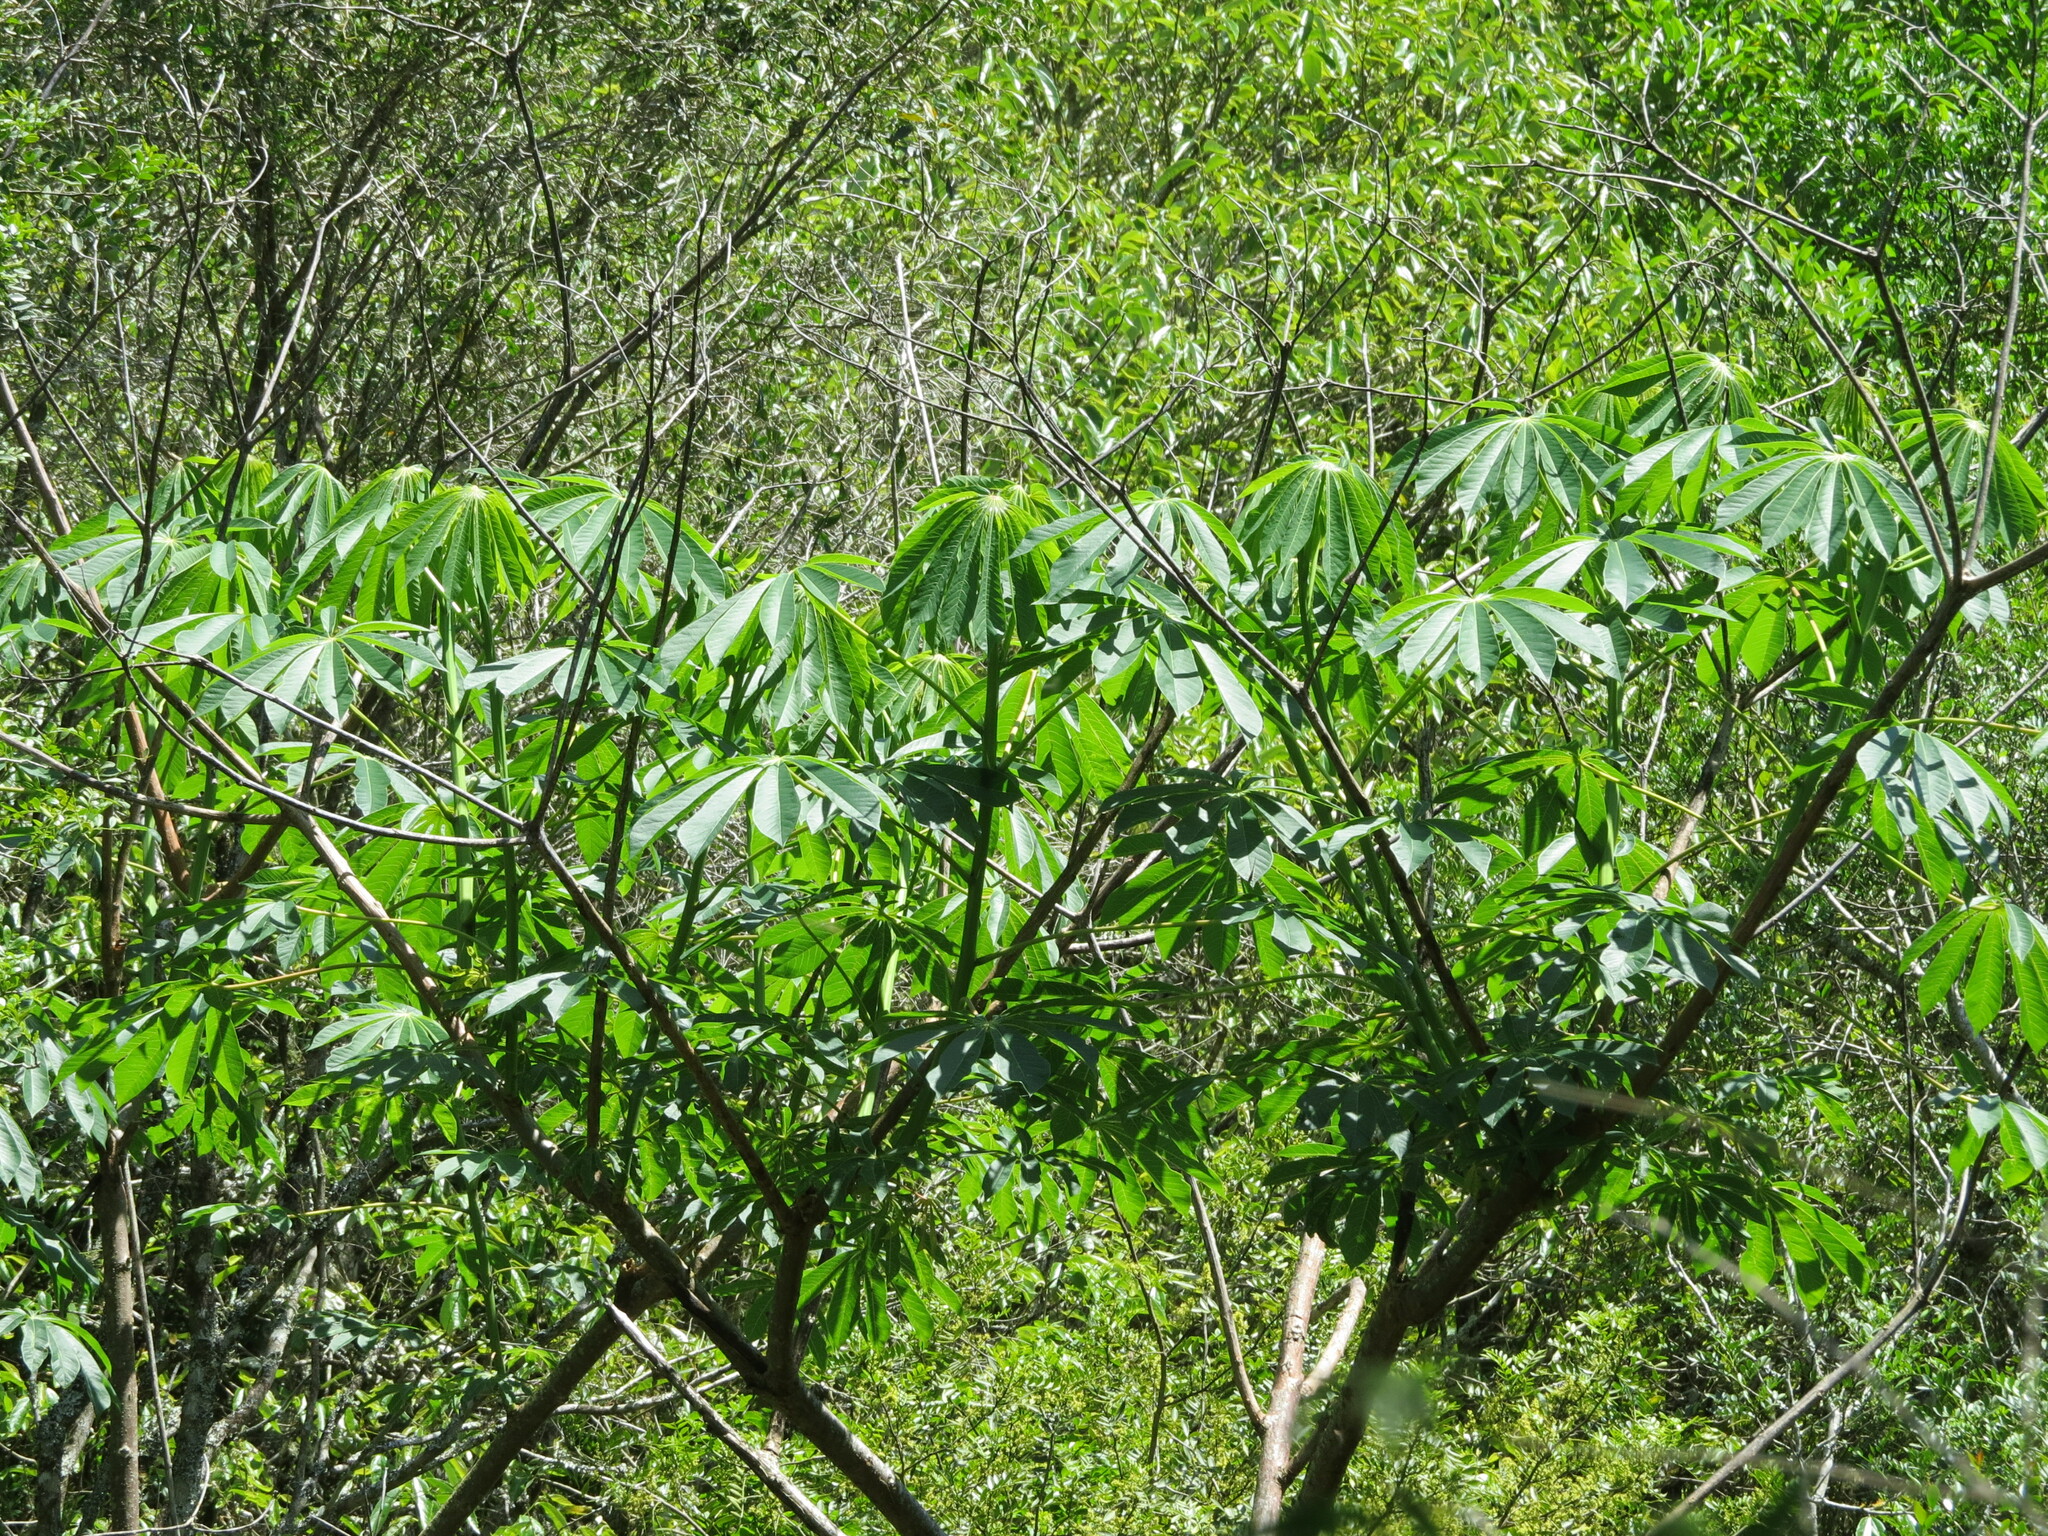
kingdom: Plantae
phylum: Tracheophyta
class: Magnoliopsida
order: Malpighiales
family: Euphorbiaceae
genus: Manihot
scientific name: Manihot grahamii
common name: Graham's manihot
